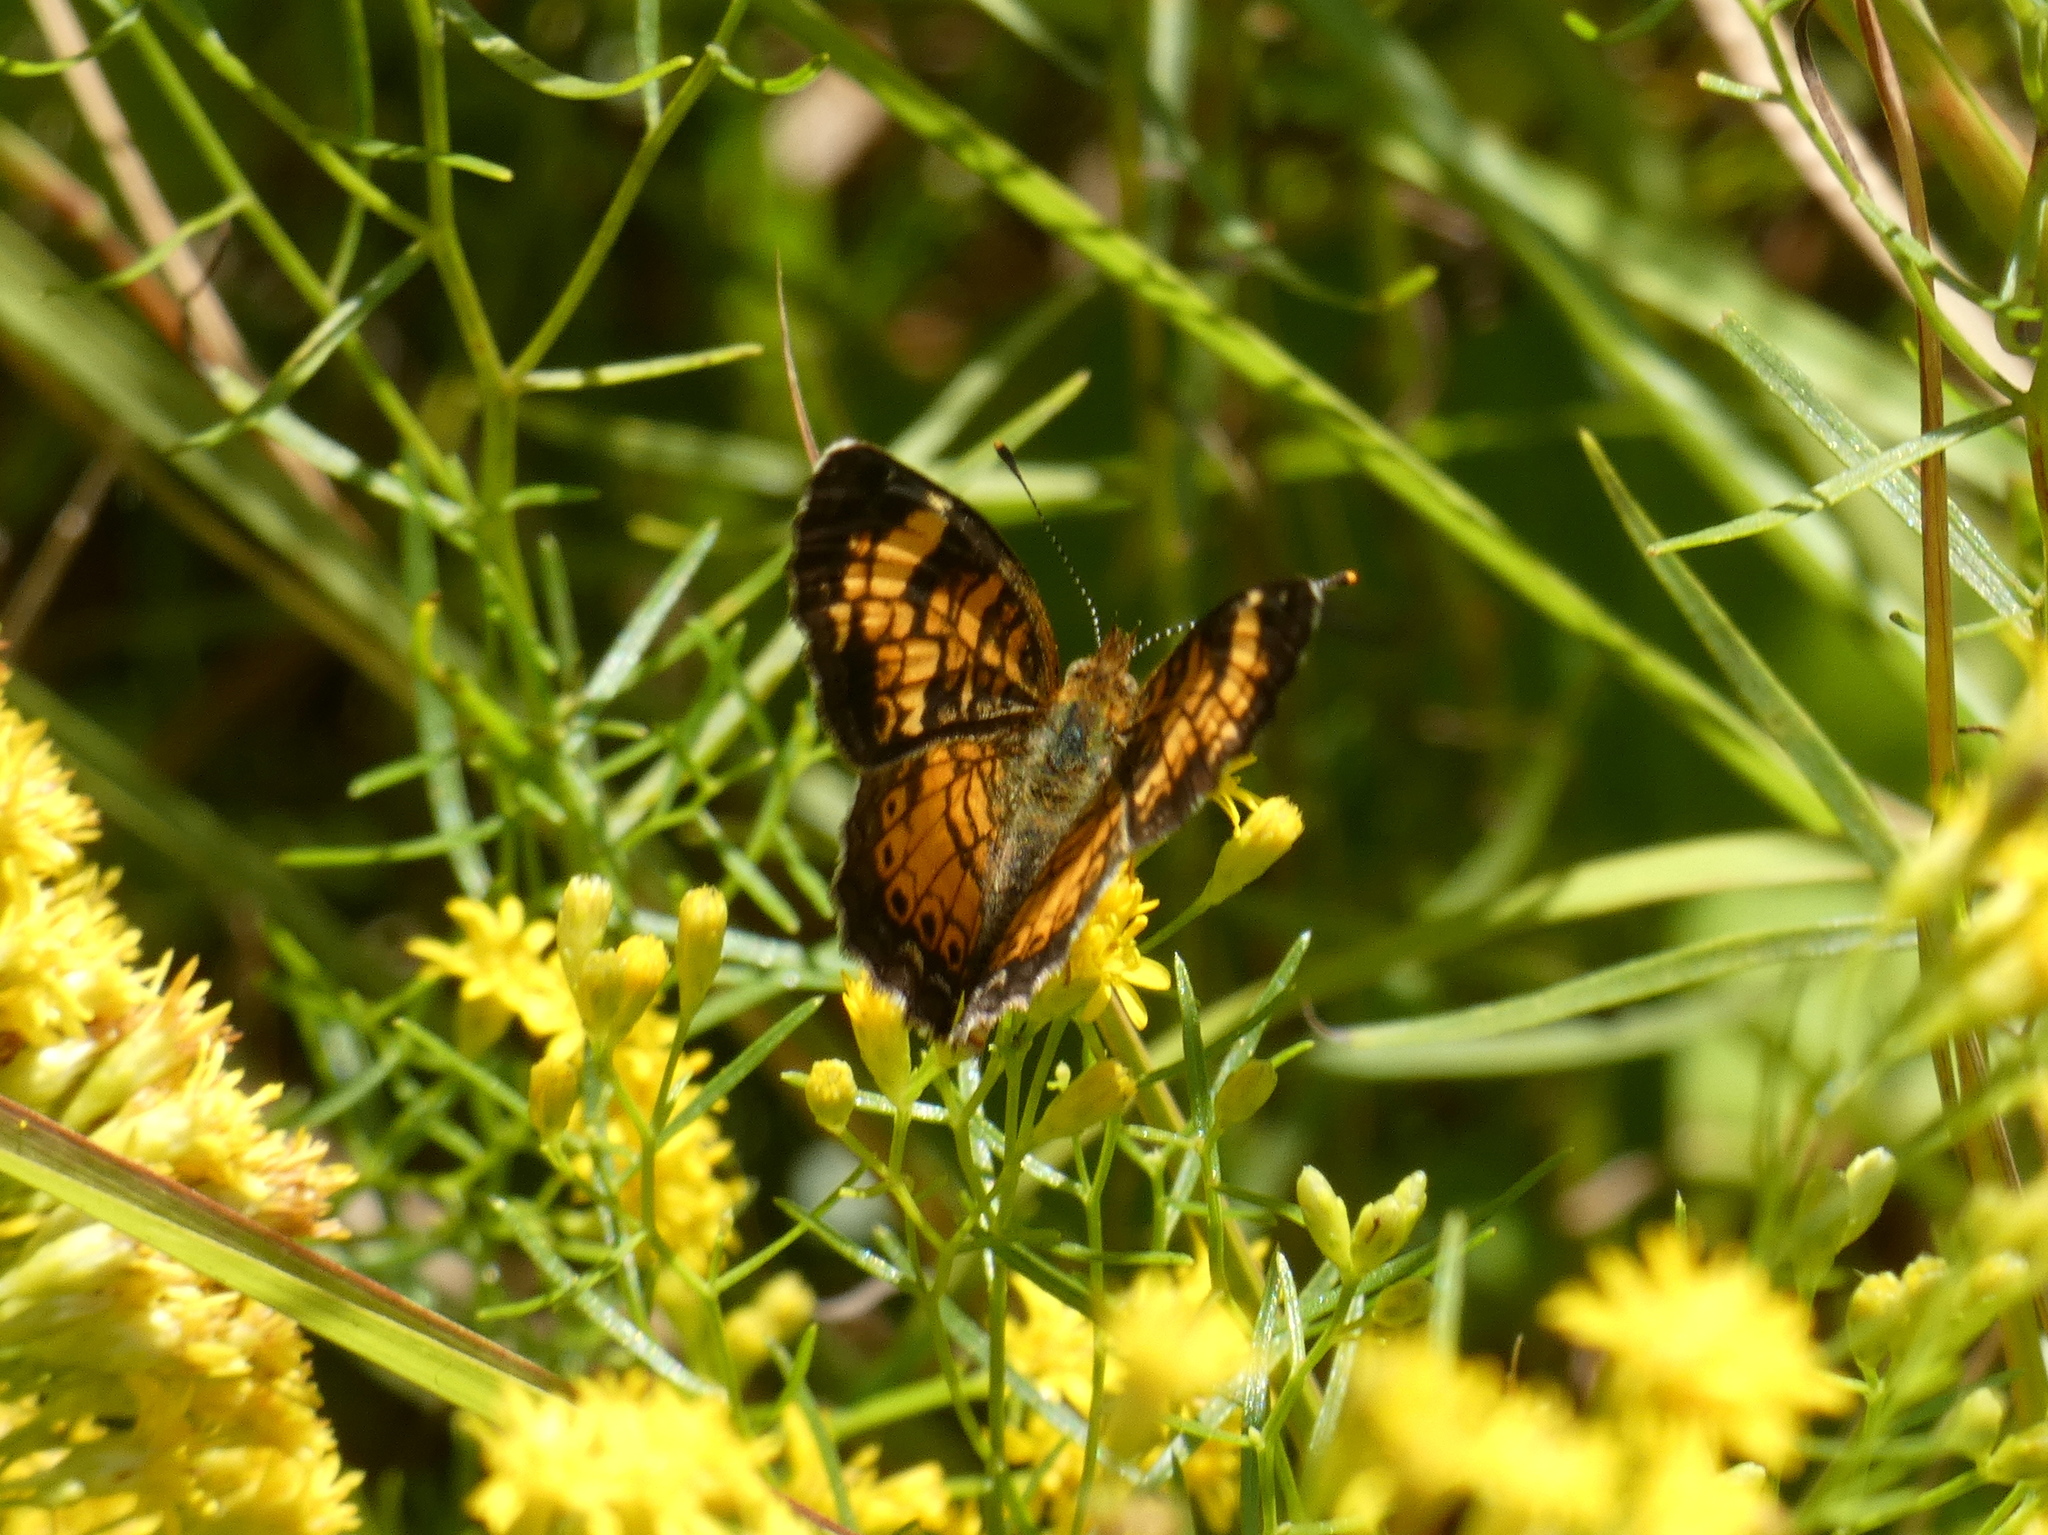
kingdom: Animalia
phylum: Arthropoda
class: Insecta
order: Lepidoptera
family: Nymphalidae
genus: Phyciodes
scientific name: Phyciodes tharos
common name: Pearl crescent
